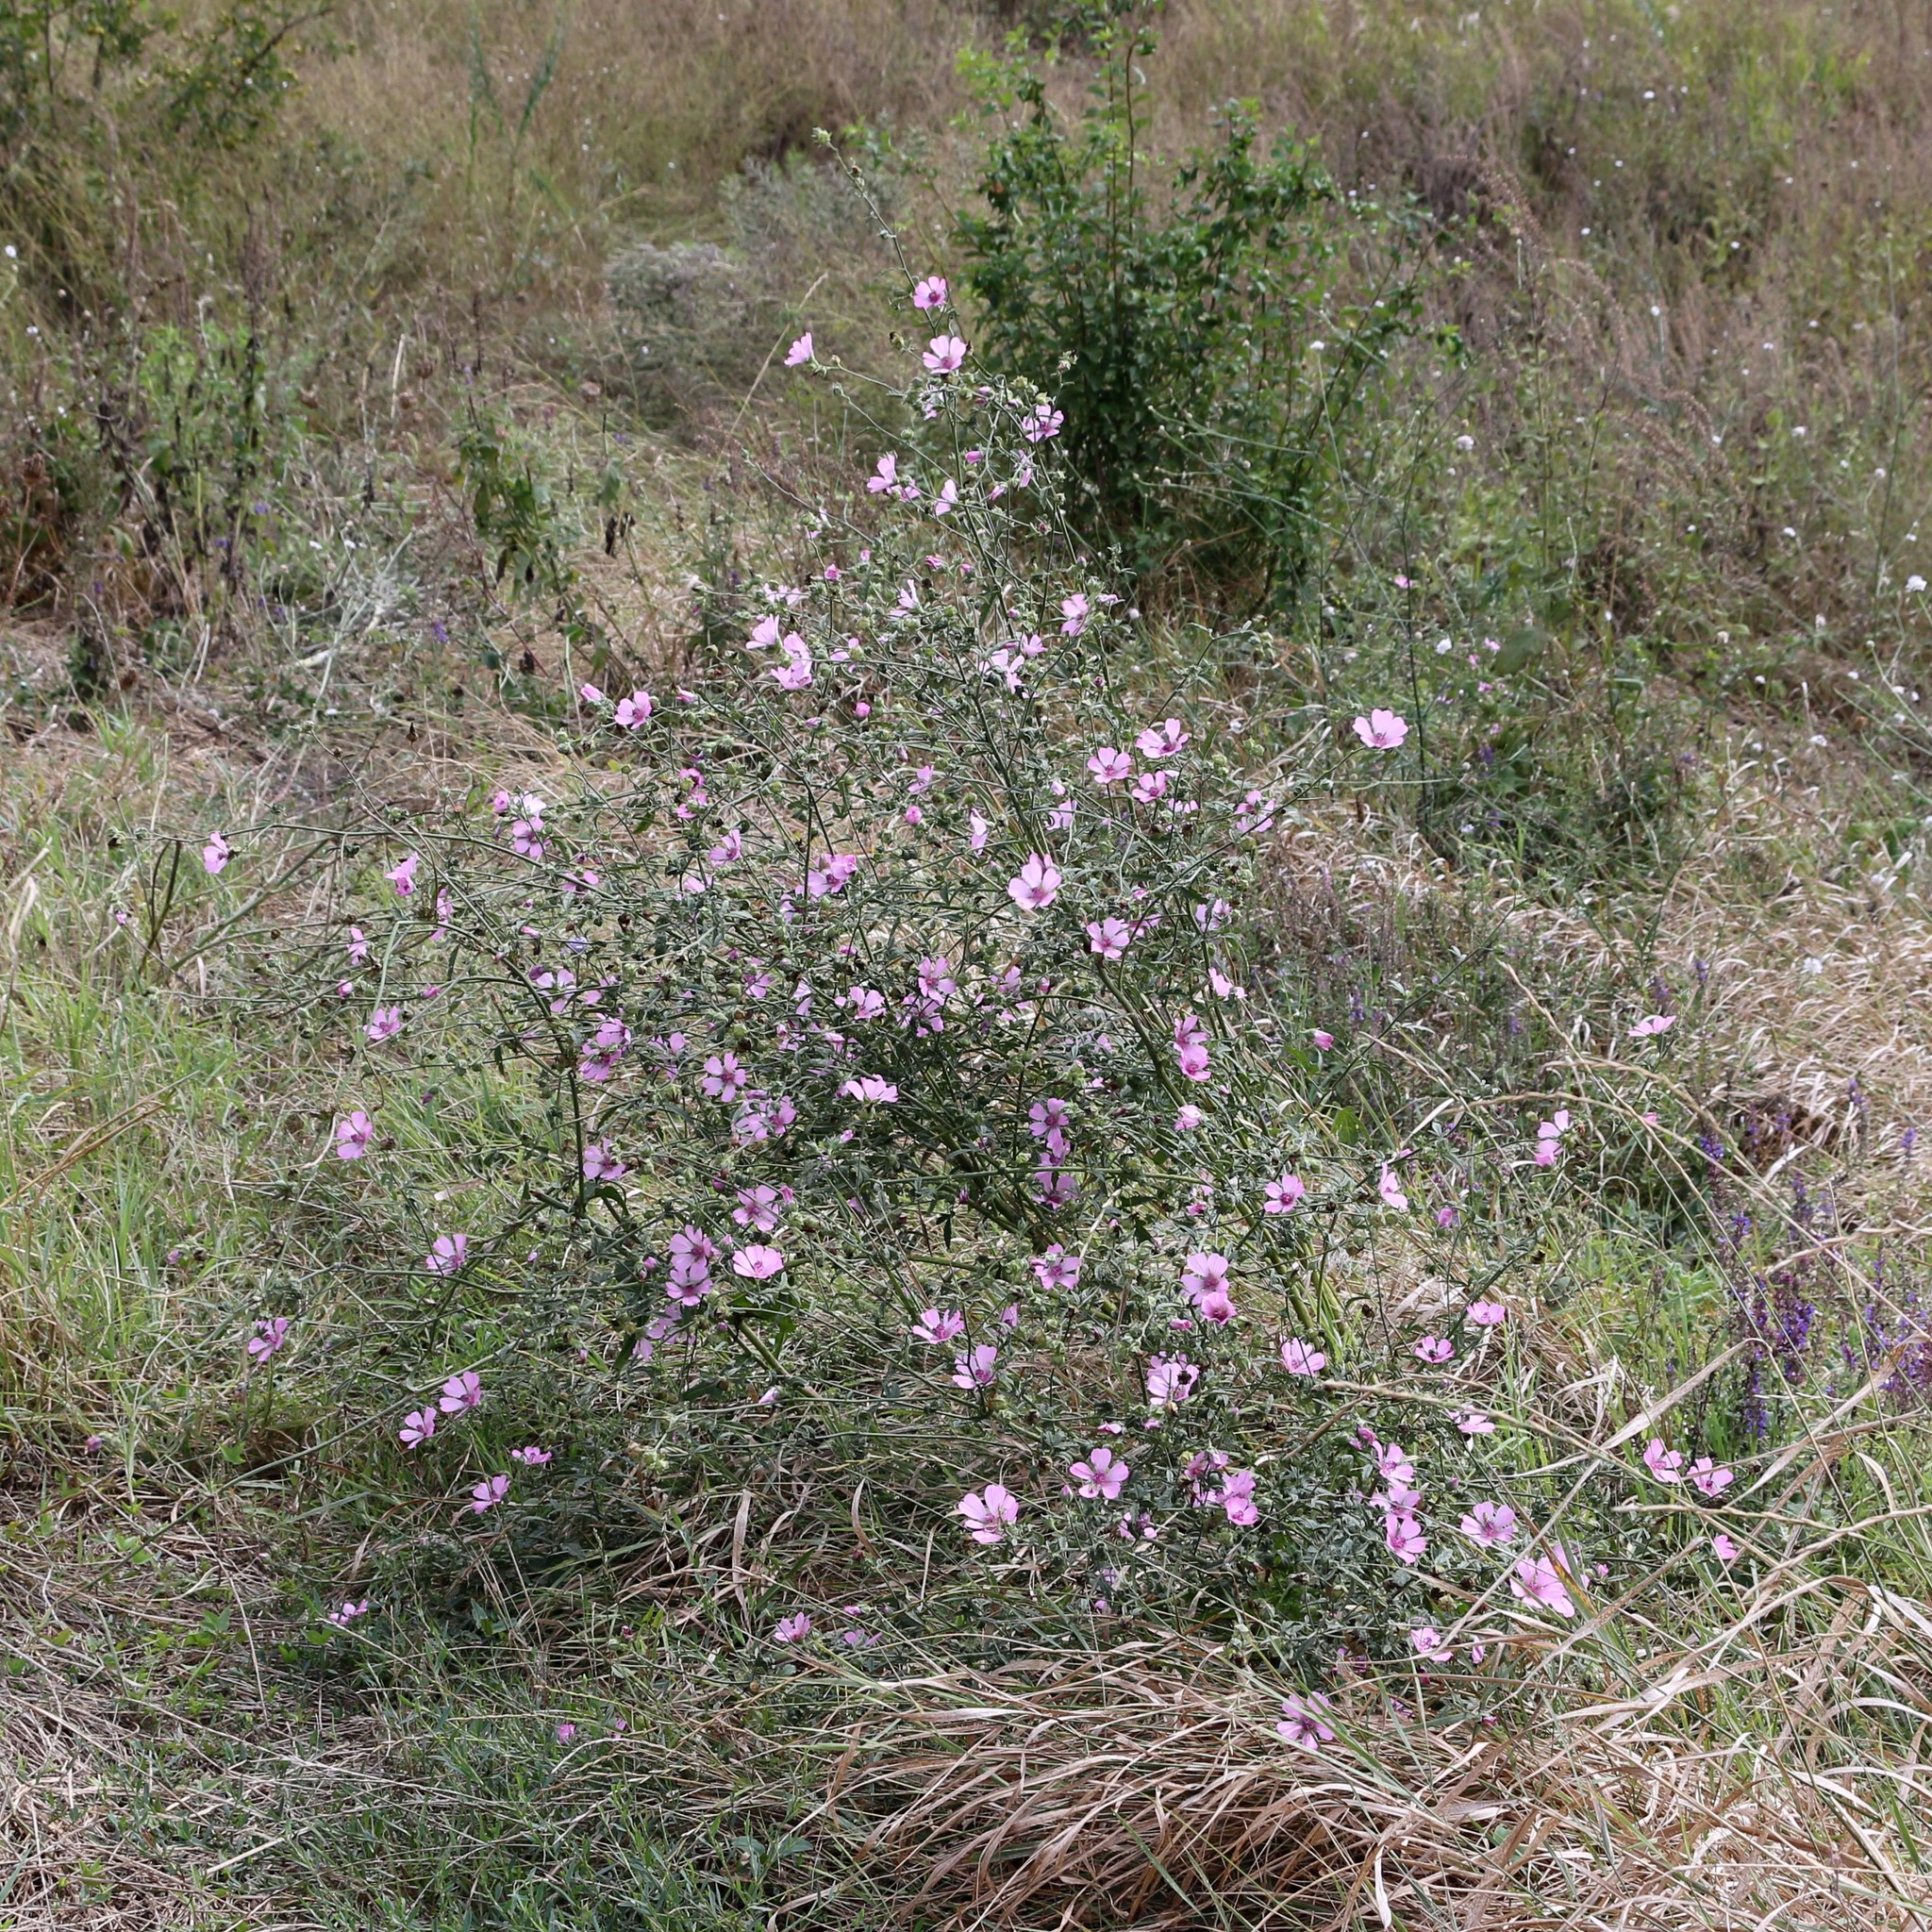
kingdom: Plantae
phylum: Tracheophyta
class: Magnoliopsida
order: Malvales
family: Malvaceae
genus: Althaea
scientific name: Althaea cannabina
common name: Palm-leaf marshmallow
